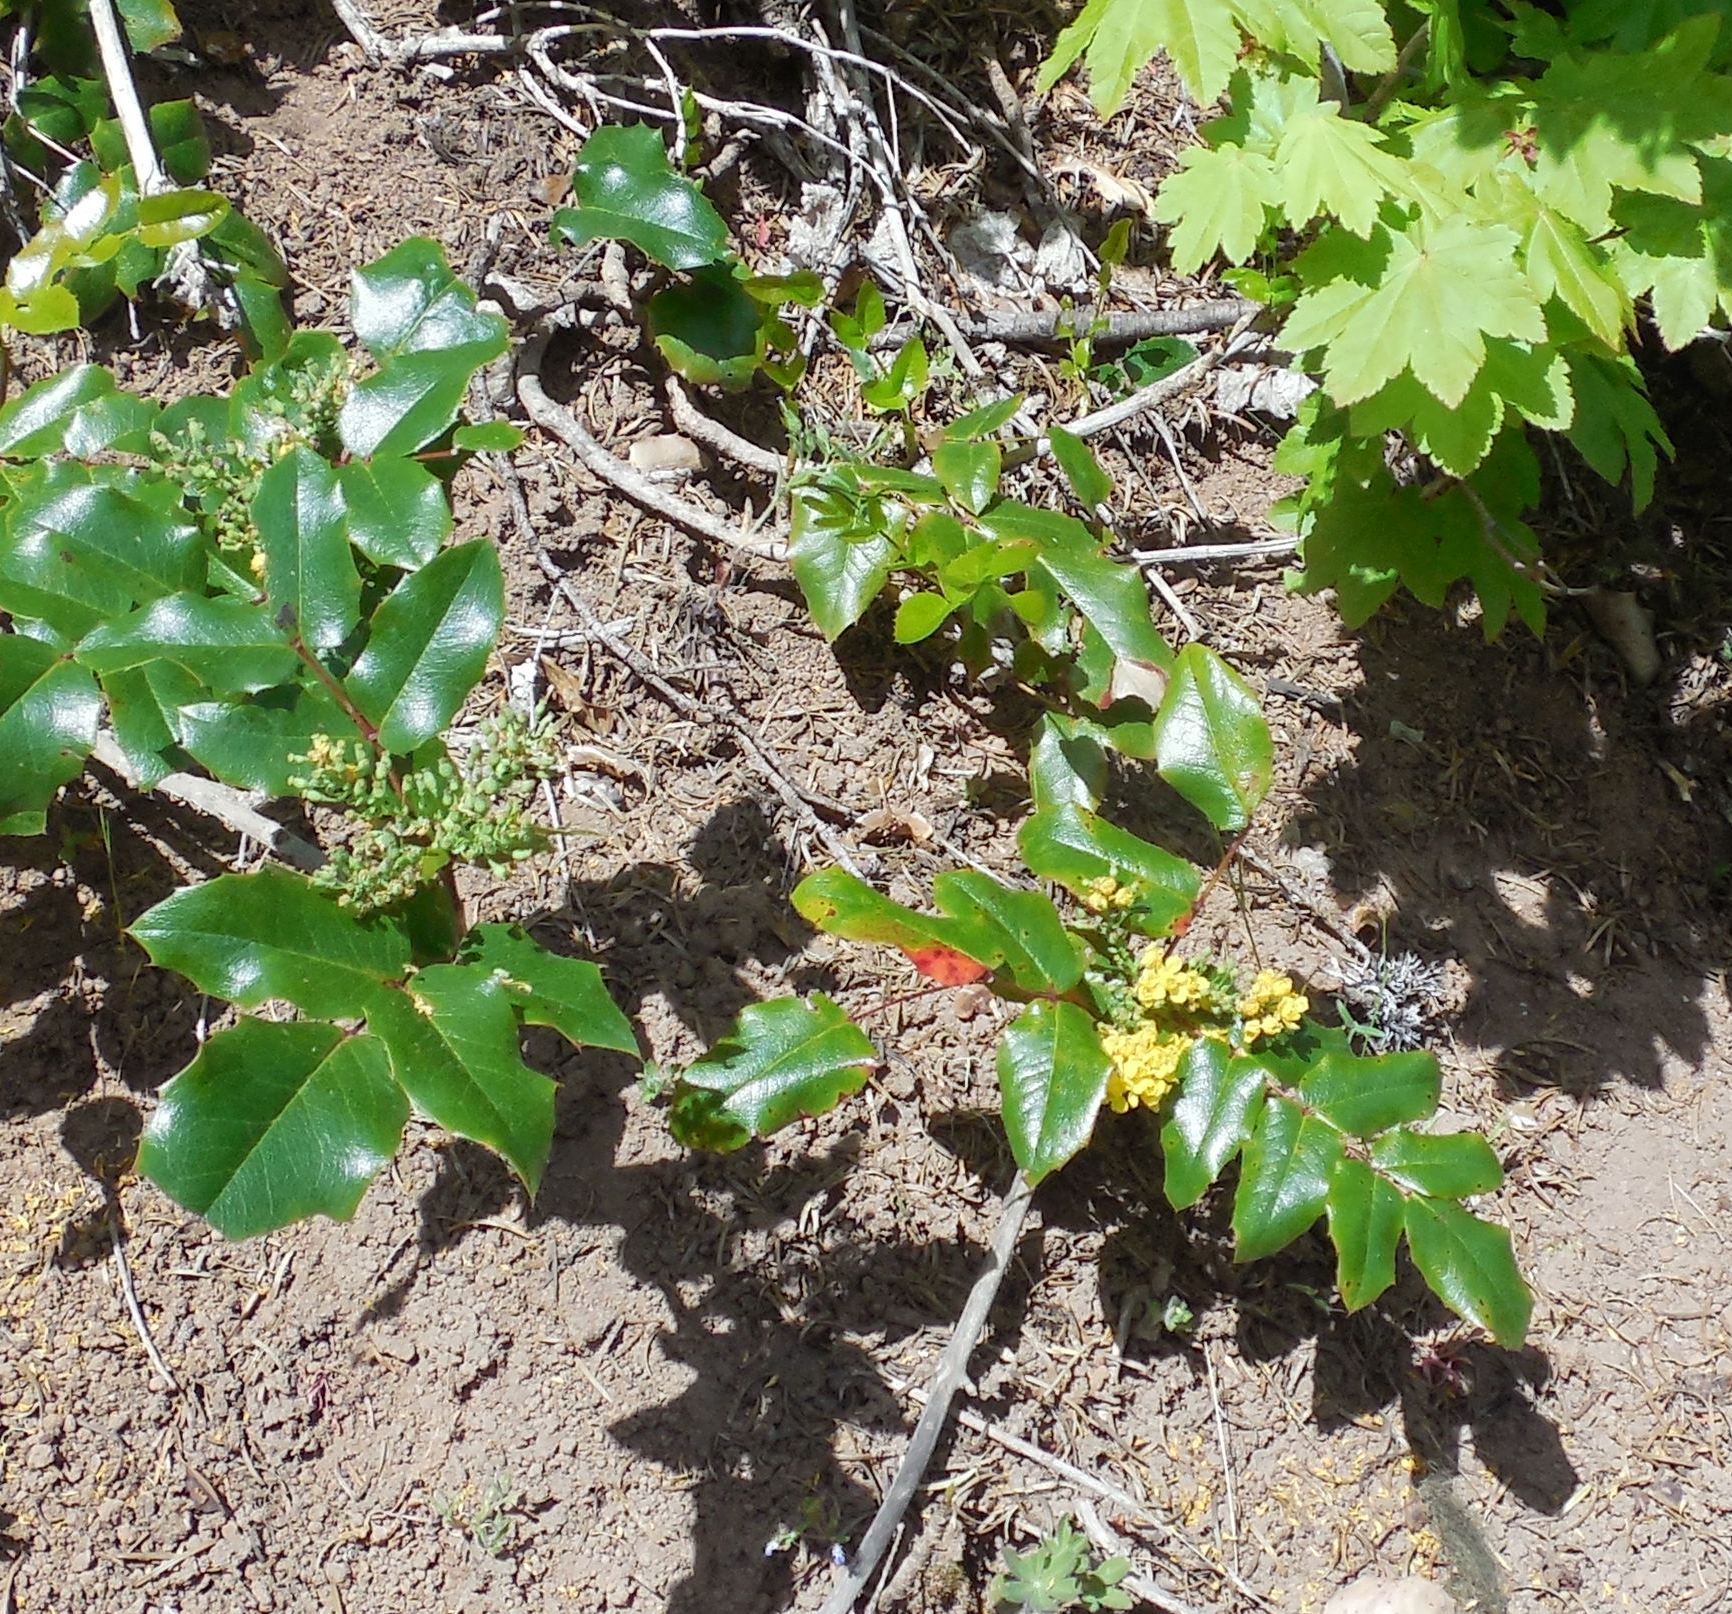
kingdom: Plantae
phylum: Tracheophyta
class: Magnoliopsida
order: Ranunculales
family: Berberidaceae
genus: Mahonia
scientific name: Mahonia aquifolium
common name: Oregon-grape
